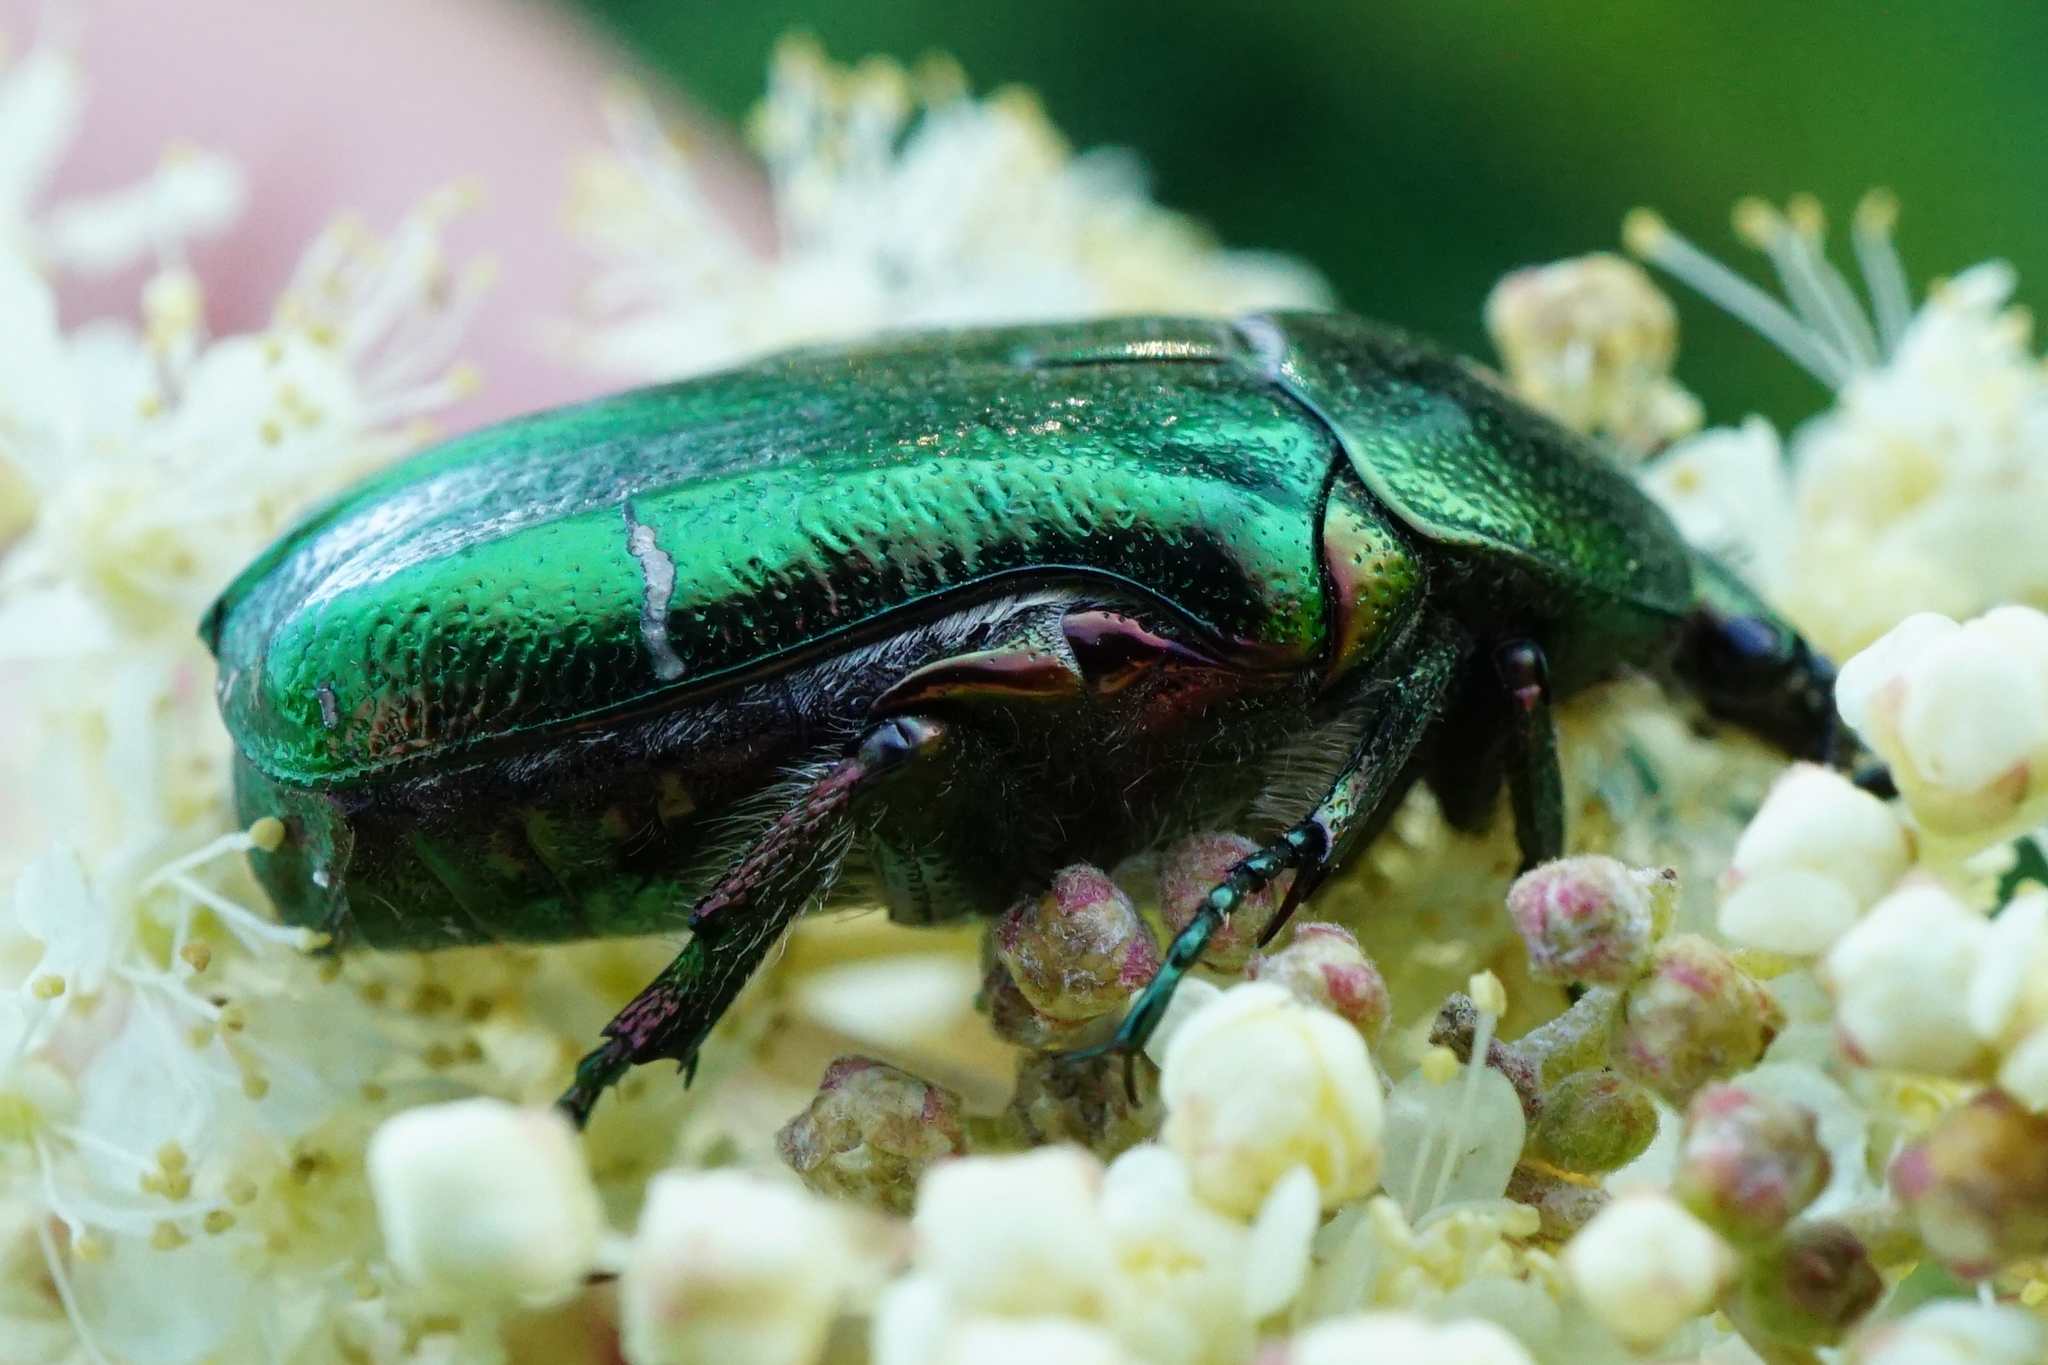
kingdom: Animalia
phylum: Arthropoda
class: Insecta
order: Coleoptera
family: Scarabaeidae
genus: Cetonia
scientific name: Cetonia aurata
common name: Rose chafer
